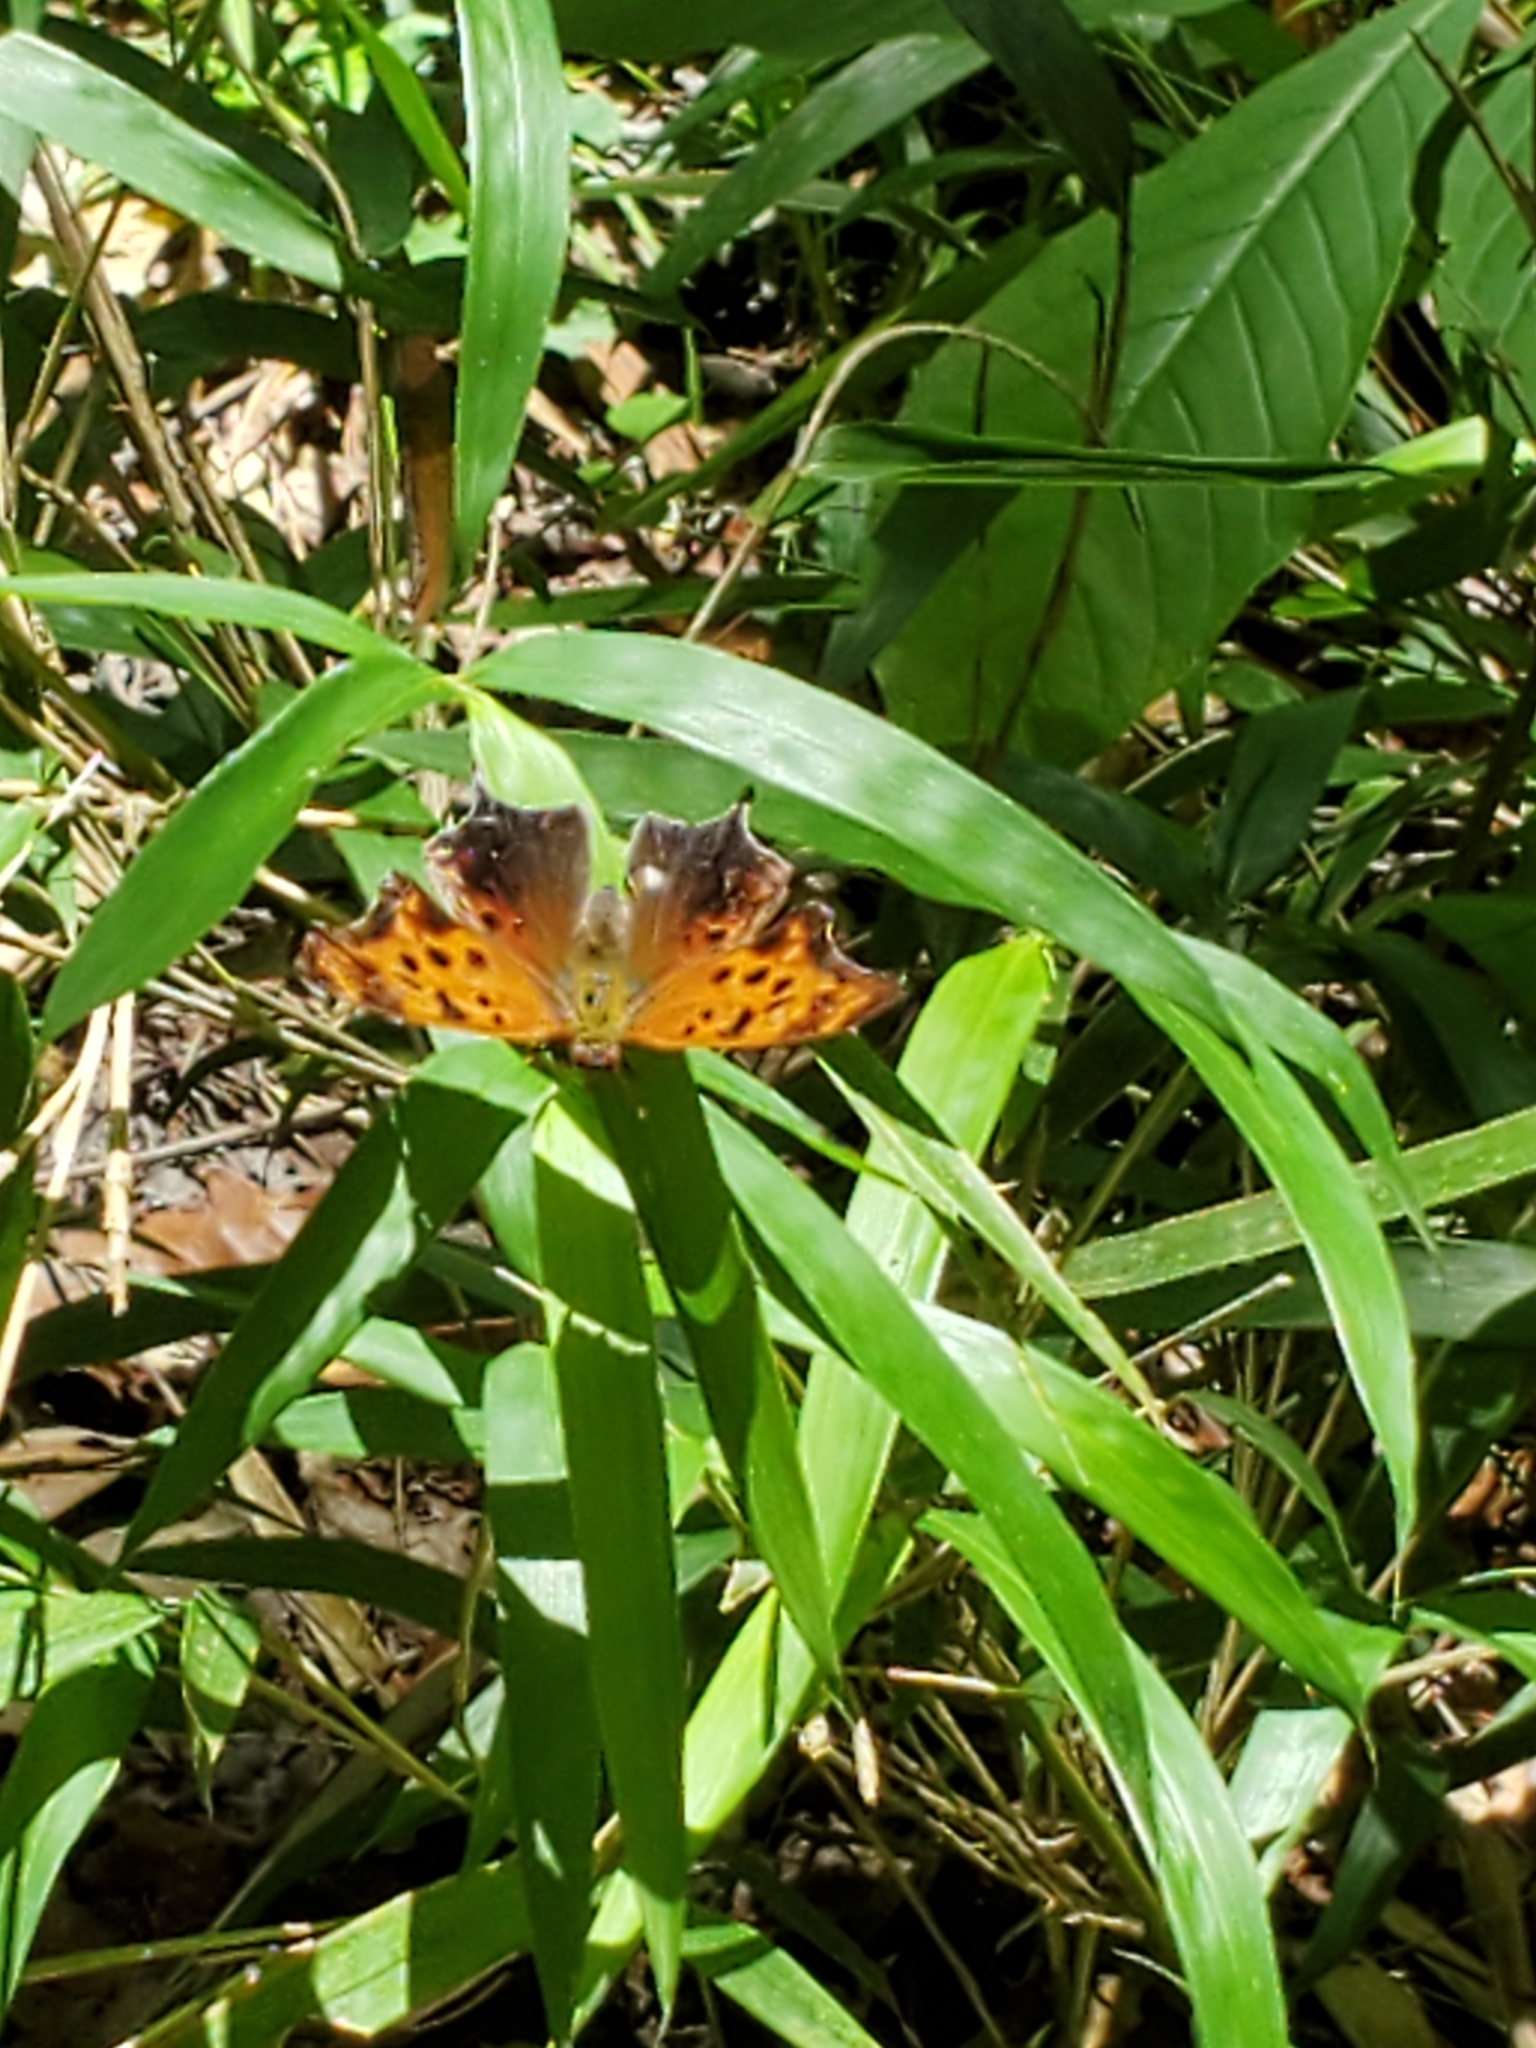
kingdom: Animalia
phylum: Arthropoda
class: Insecta
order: Lepidoptera
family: Nymphalidae
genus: Polygonia
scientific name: Polygonia interrogationis
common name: Question mark
